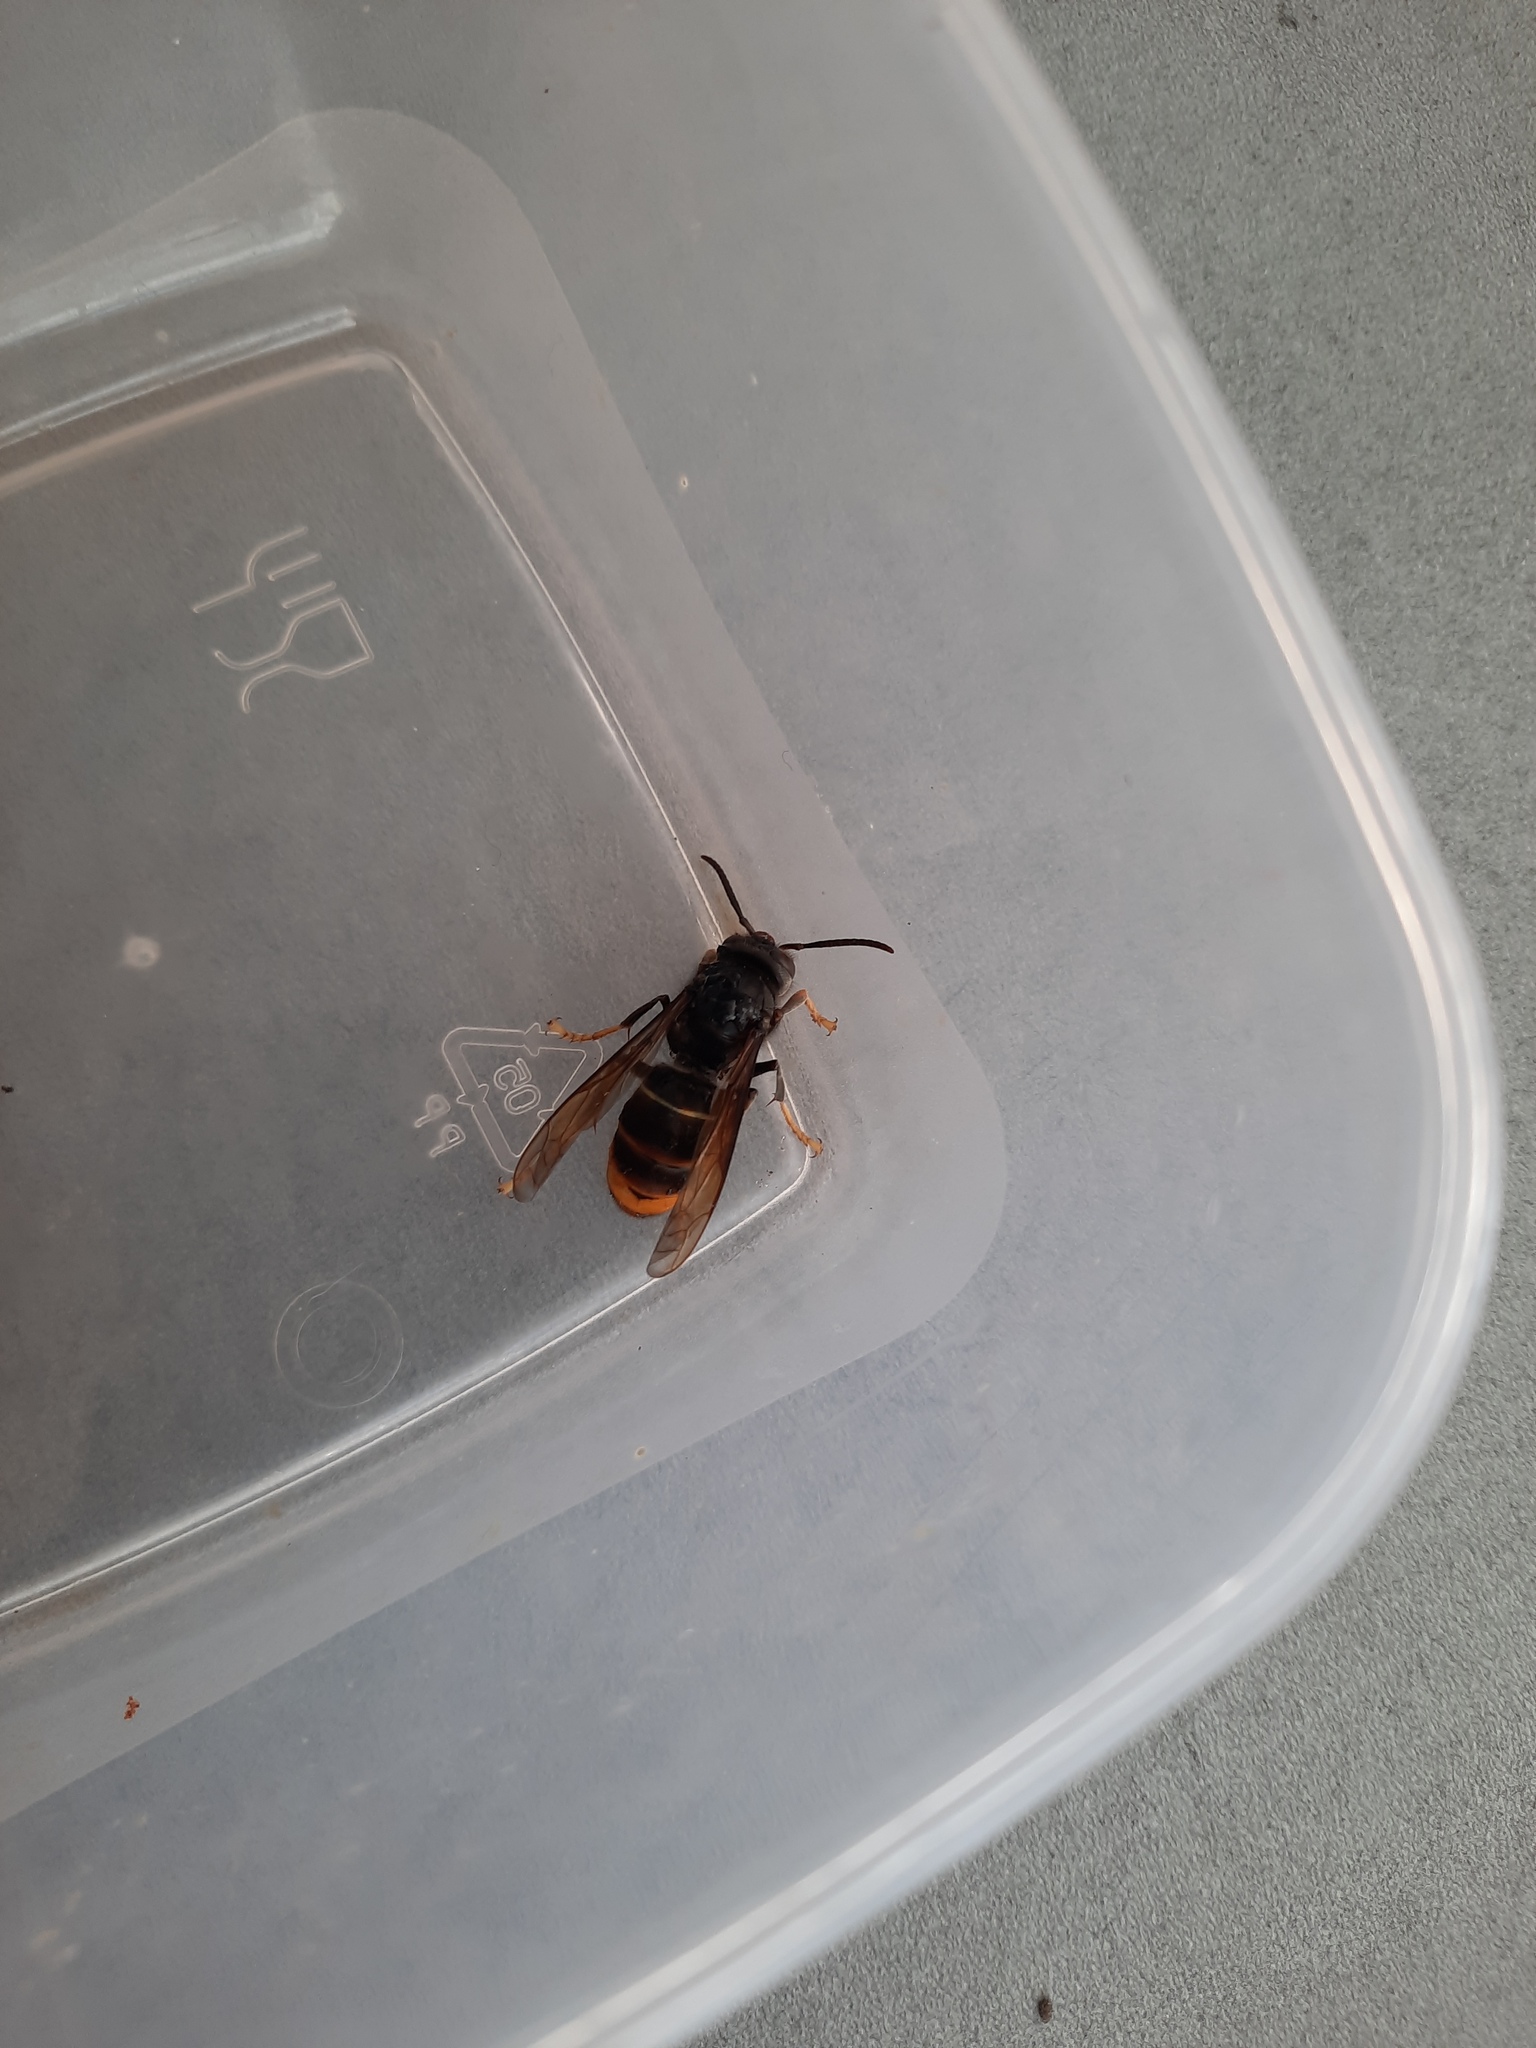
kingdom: Animalia
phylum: Arthropoda
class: Insecta
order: Hymenoptera
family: Vespidae
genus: Vespa
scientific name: Vespa velutina
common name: Asian hornet
